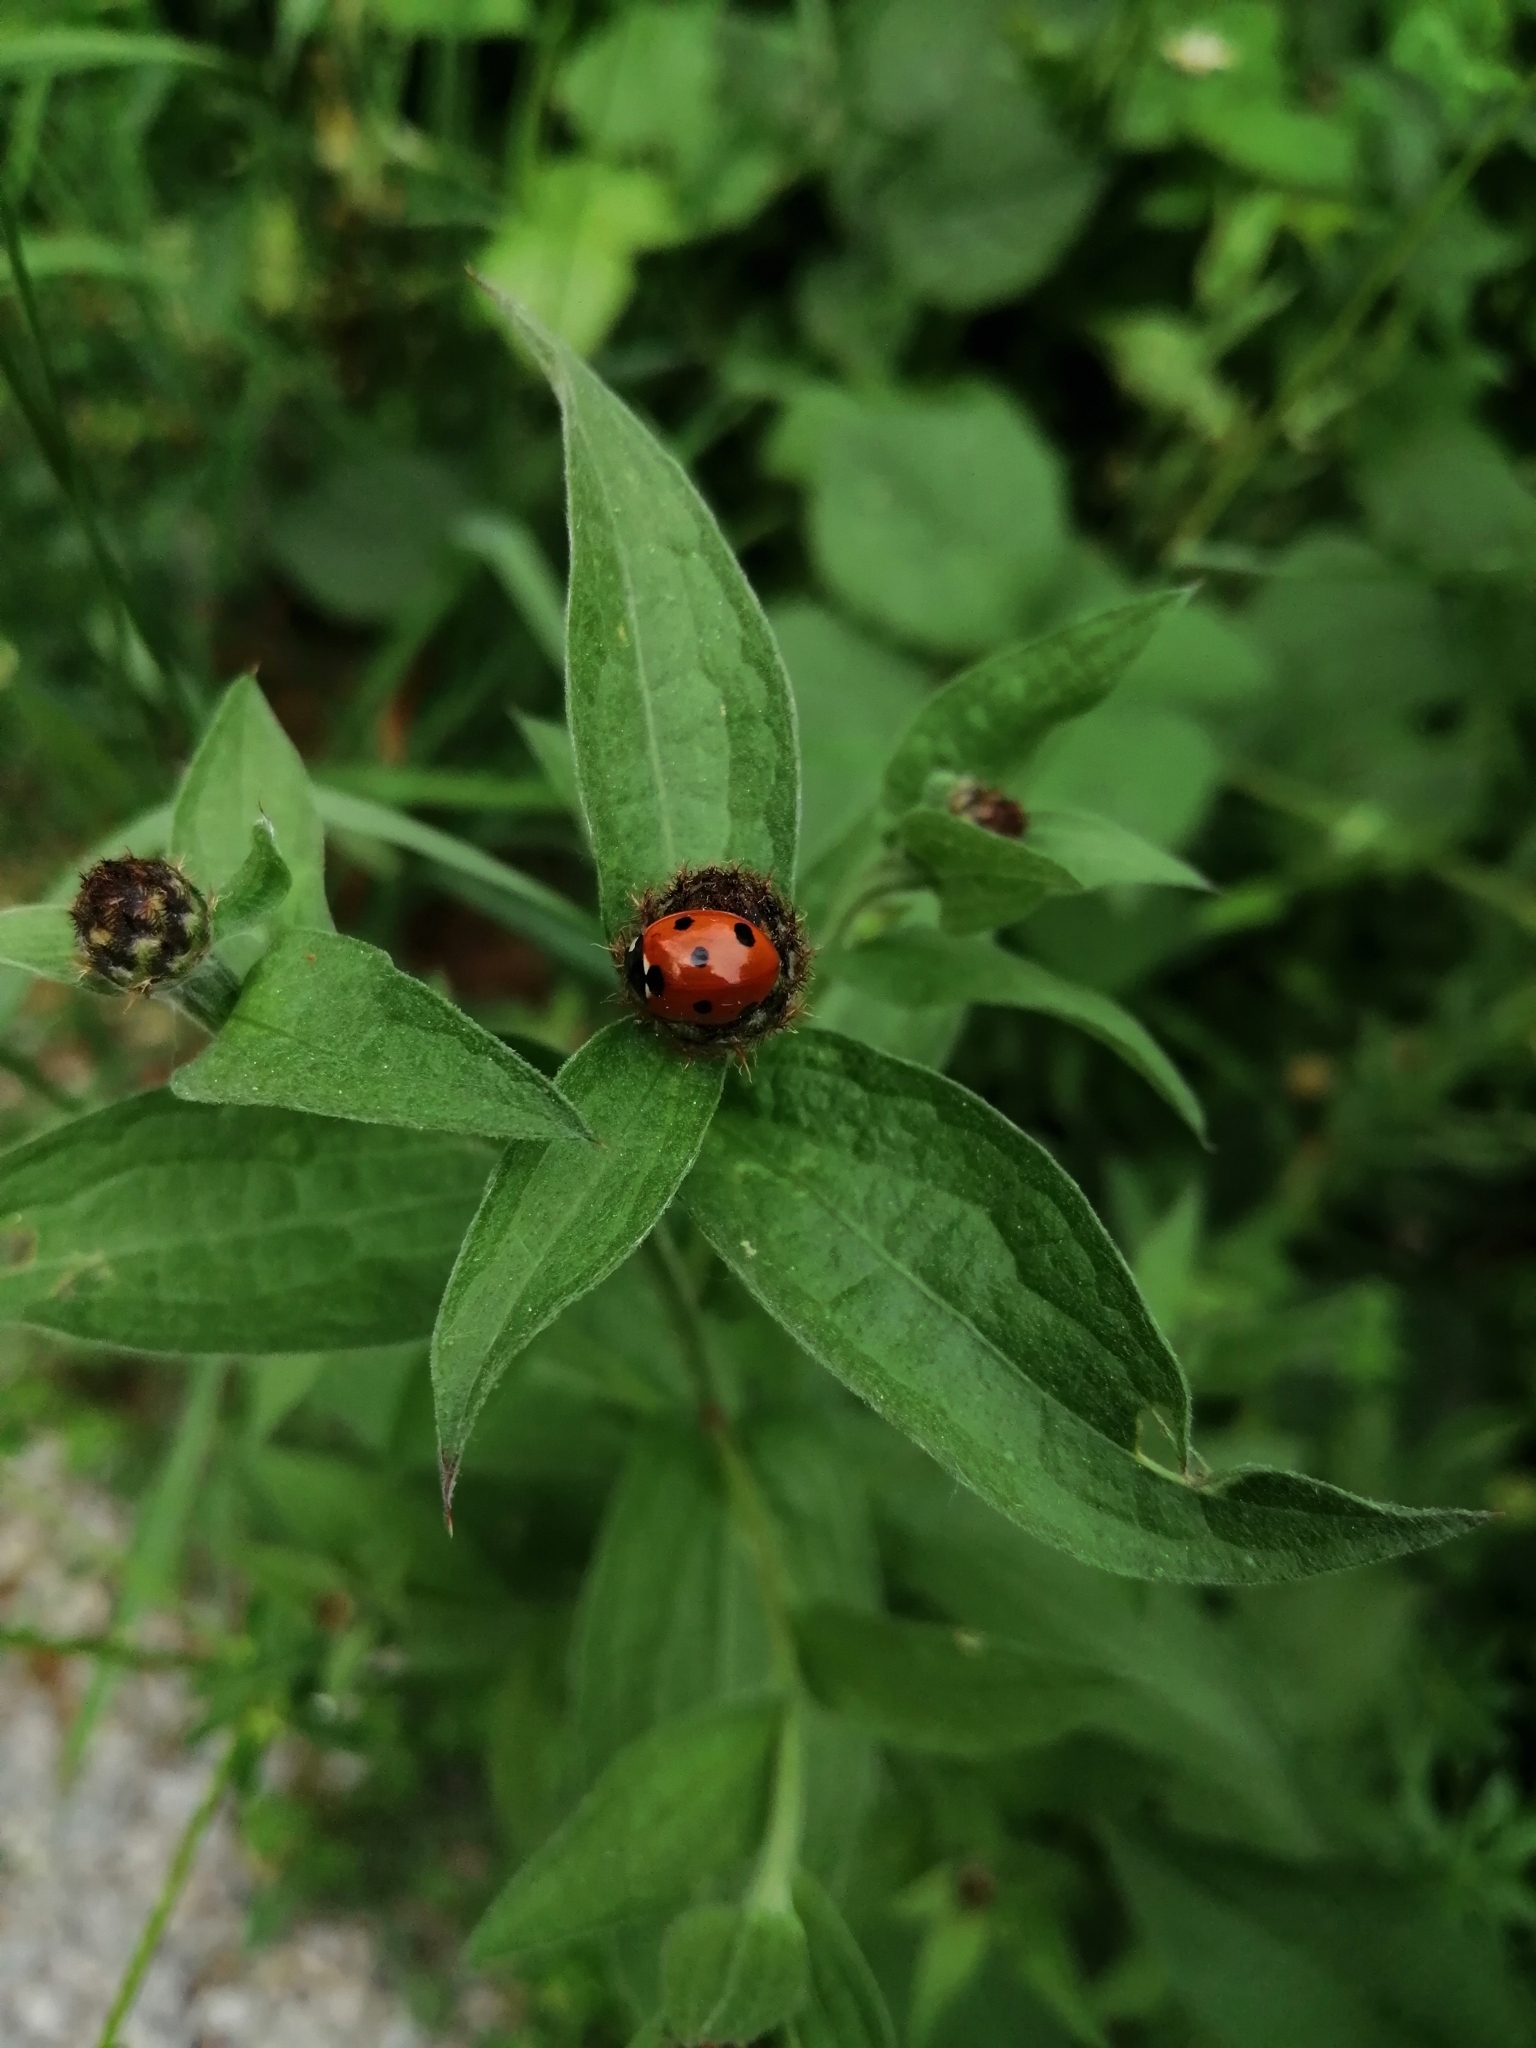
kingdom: Animalia
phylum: Arthropoda
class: Insecta
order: Coleoptera
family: Coccinellidae
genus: Coccinella
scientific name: Coccinella septempunctata
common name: Sevenspotted lady beetle
